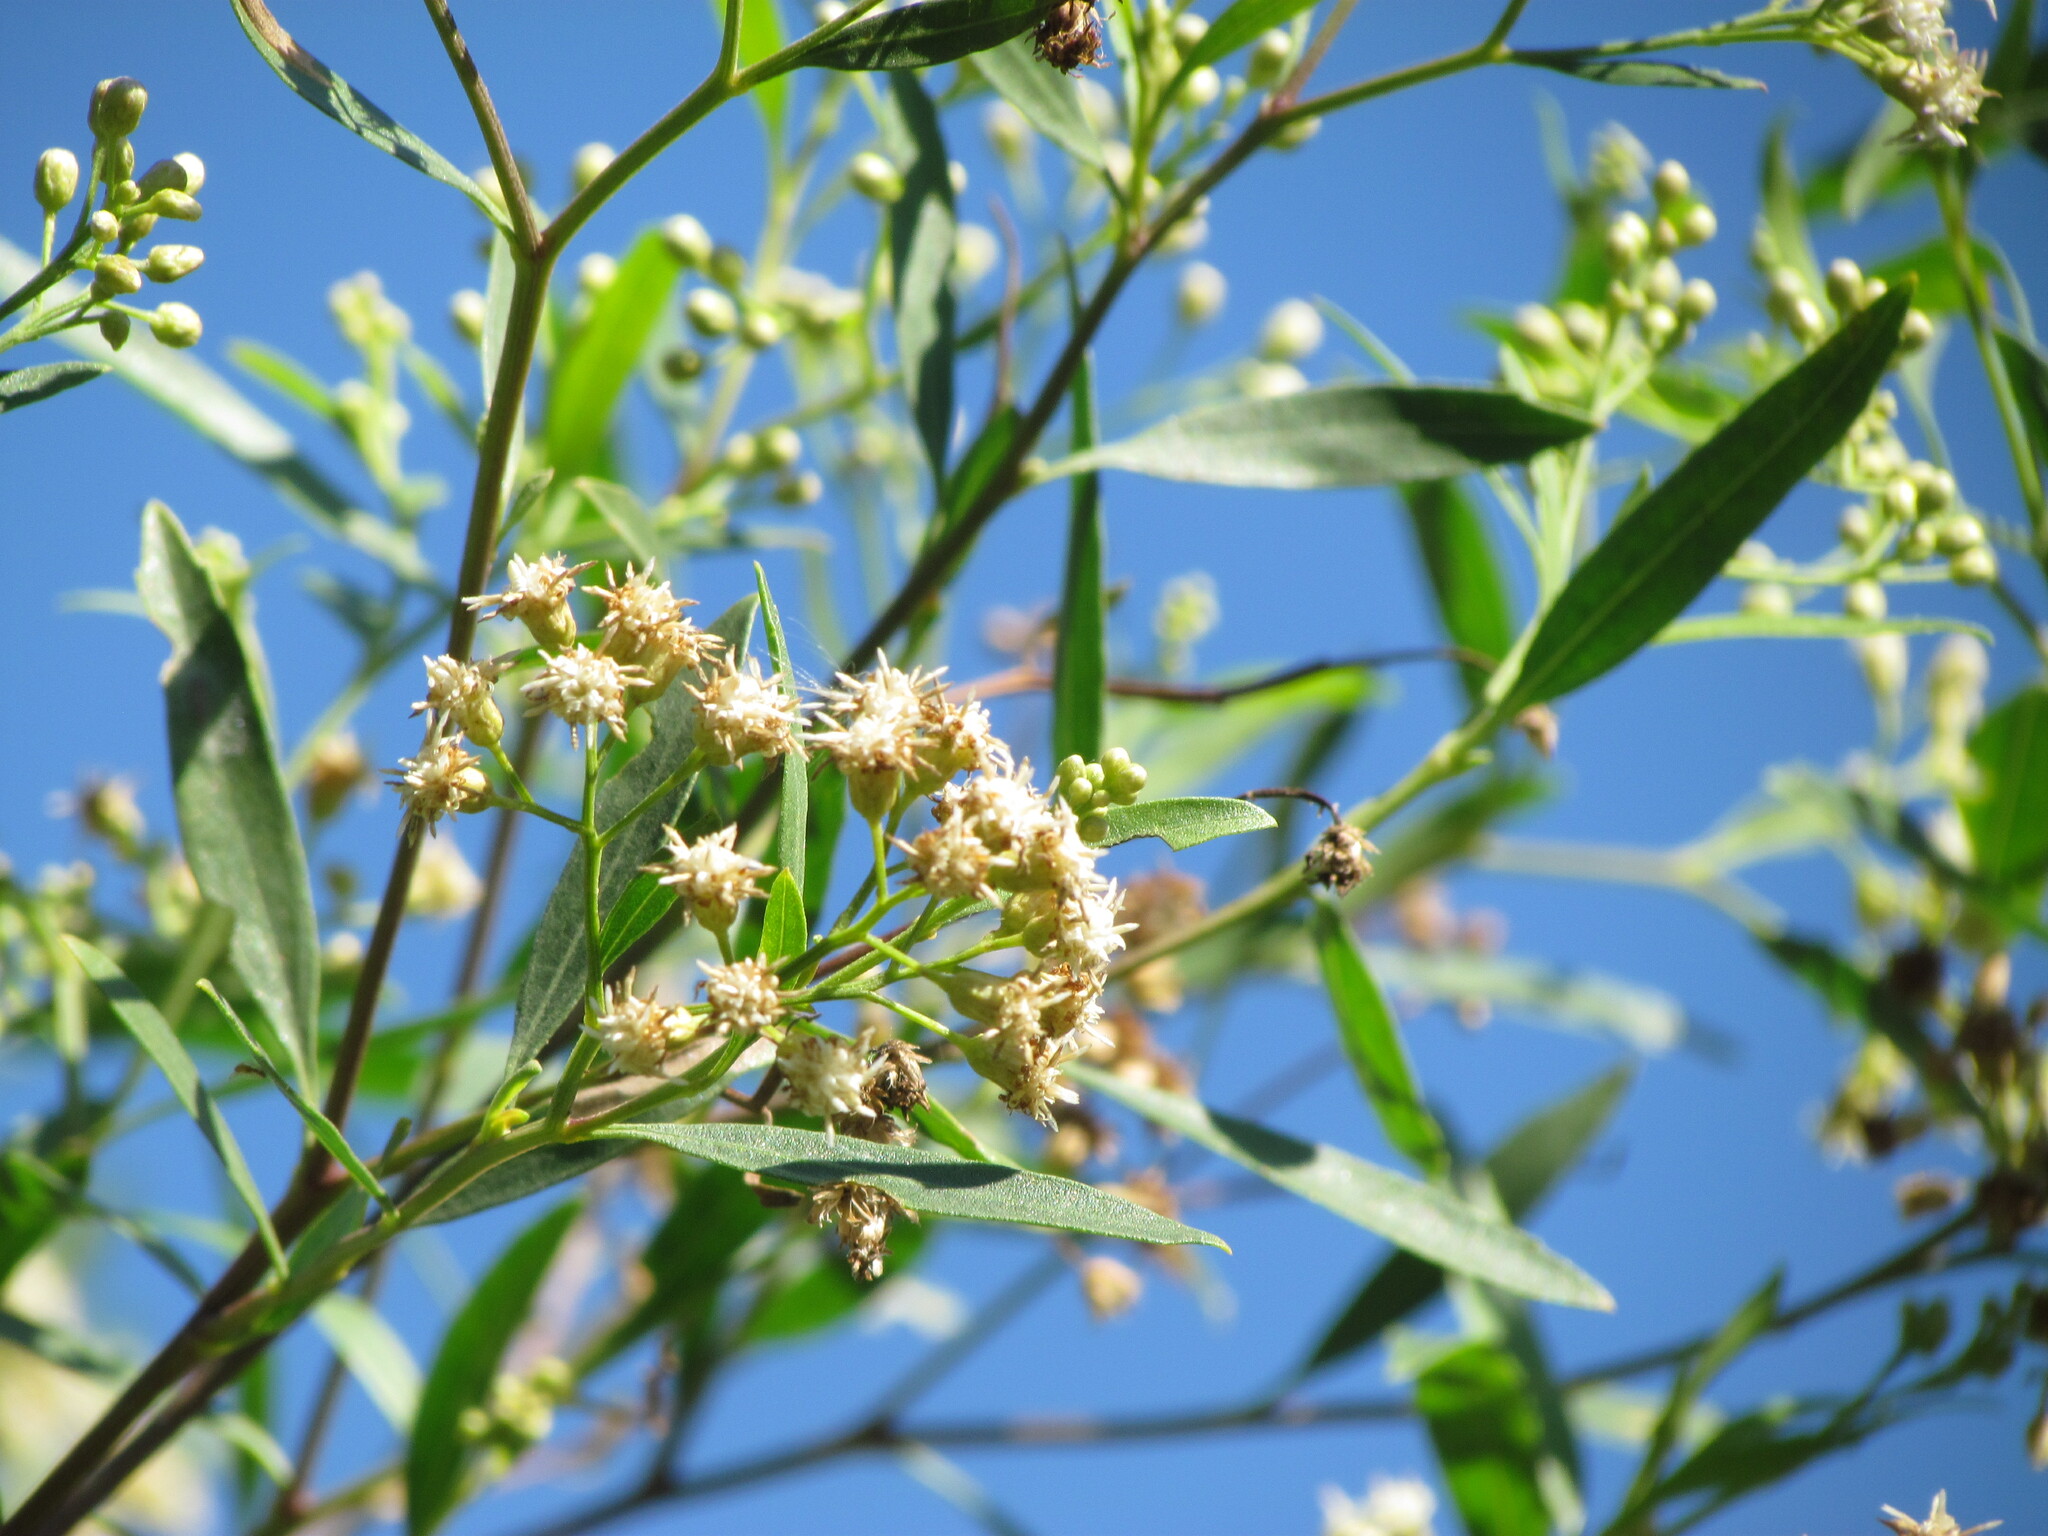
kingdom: Plantae
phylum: Tracheophyta
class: Magnoliopsida
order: Asterales
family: Asteraceae
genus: Baccharis
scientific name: Baccharis salicifolia
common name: Sticky baccharis
